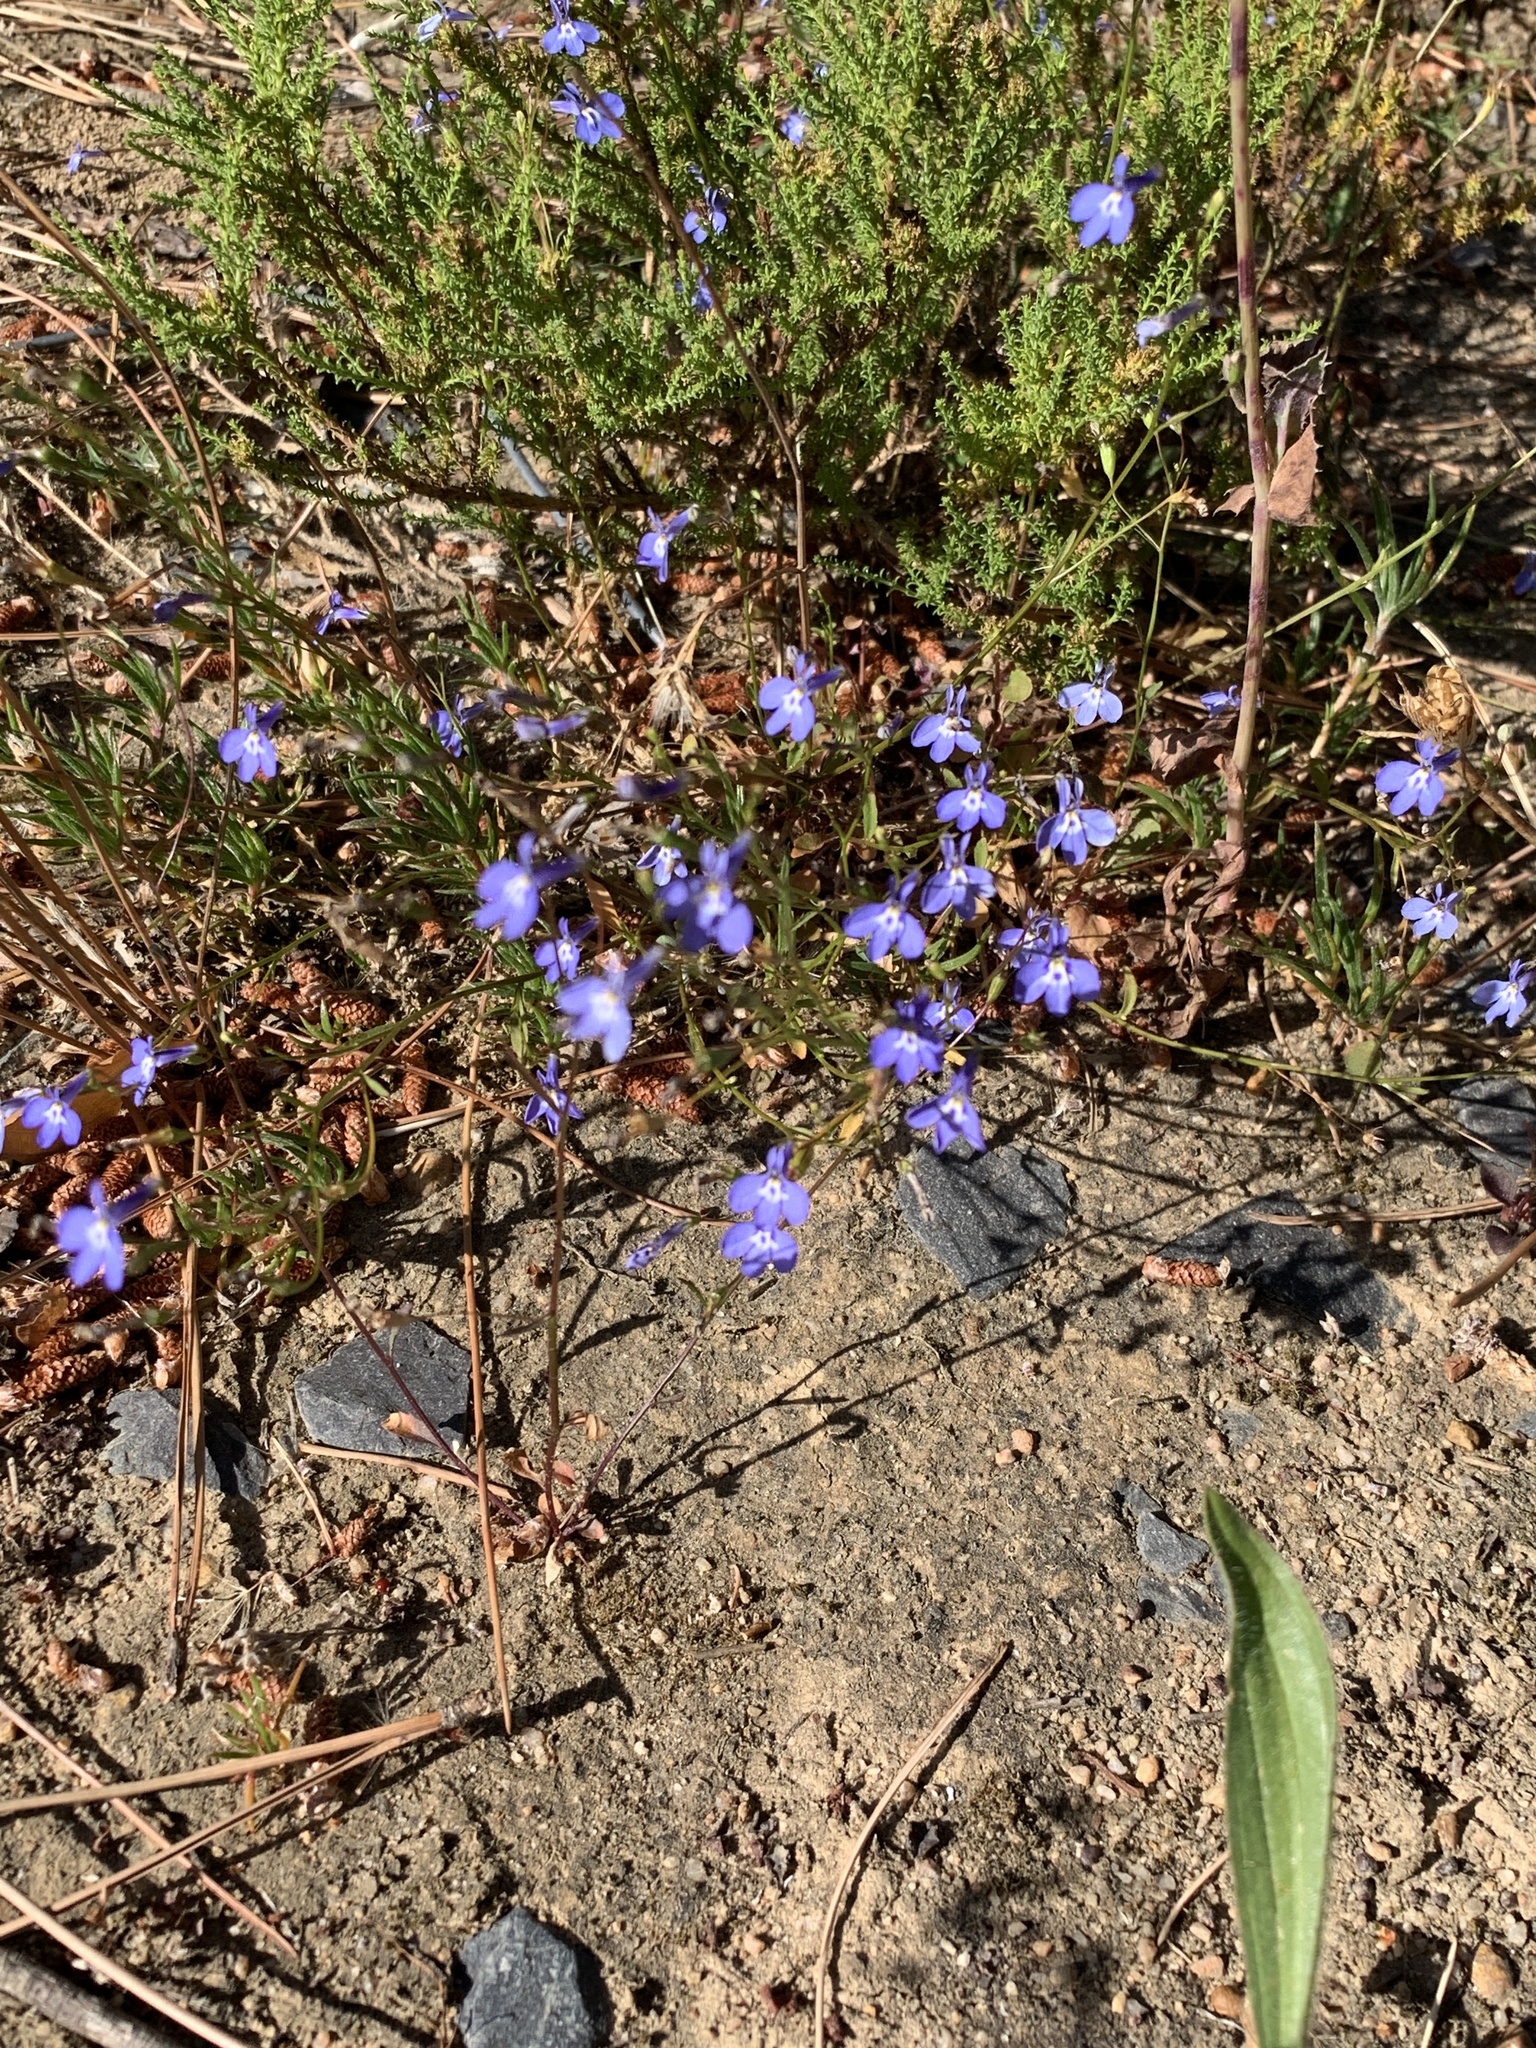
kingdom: Plantae
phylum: Tracheophyta
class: Magnoliopsida
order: Asterales
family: Campanulaceae
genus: Lobelia
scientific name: Lobelia erinus
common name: Edging lobelia
